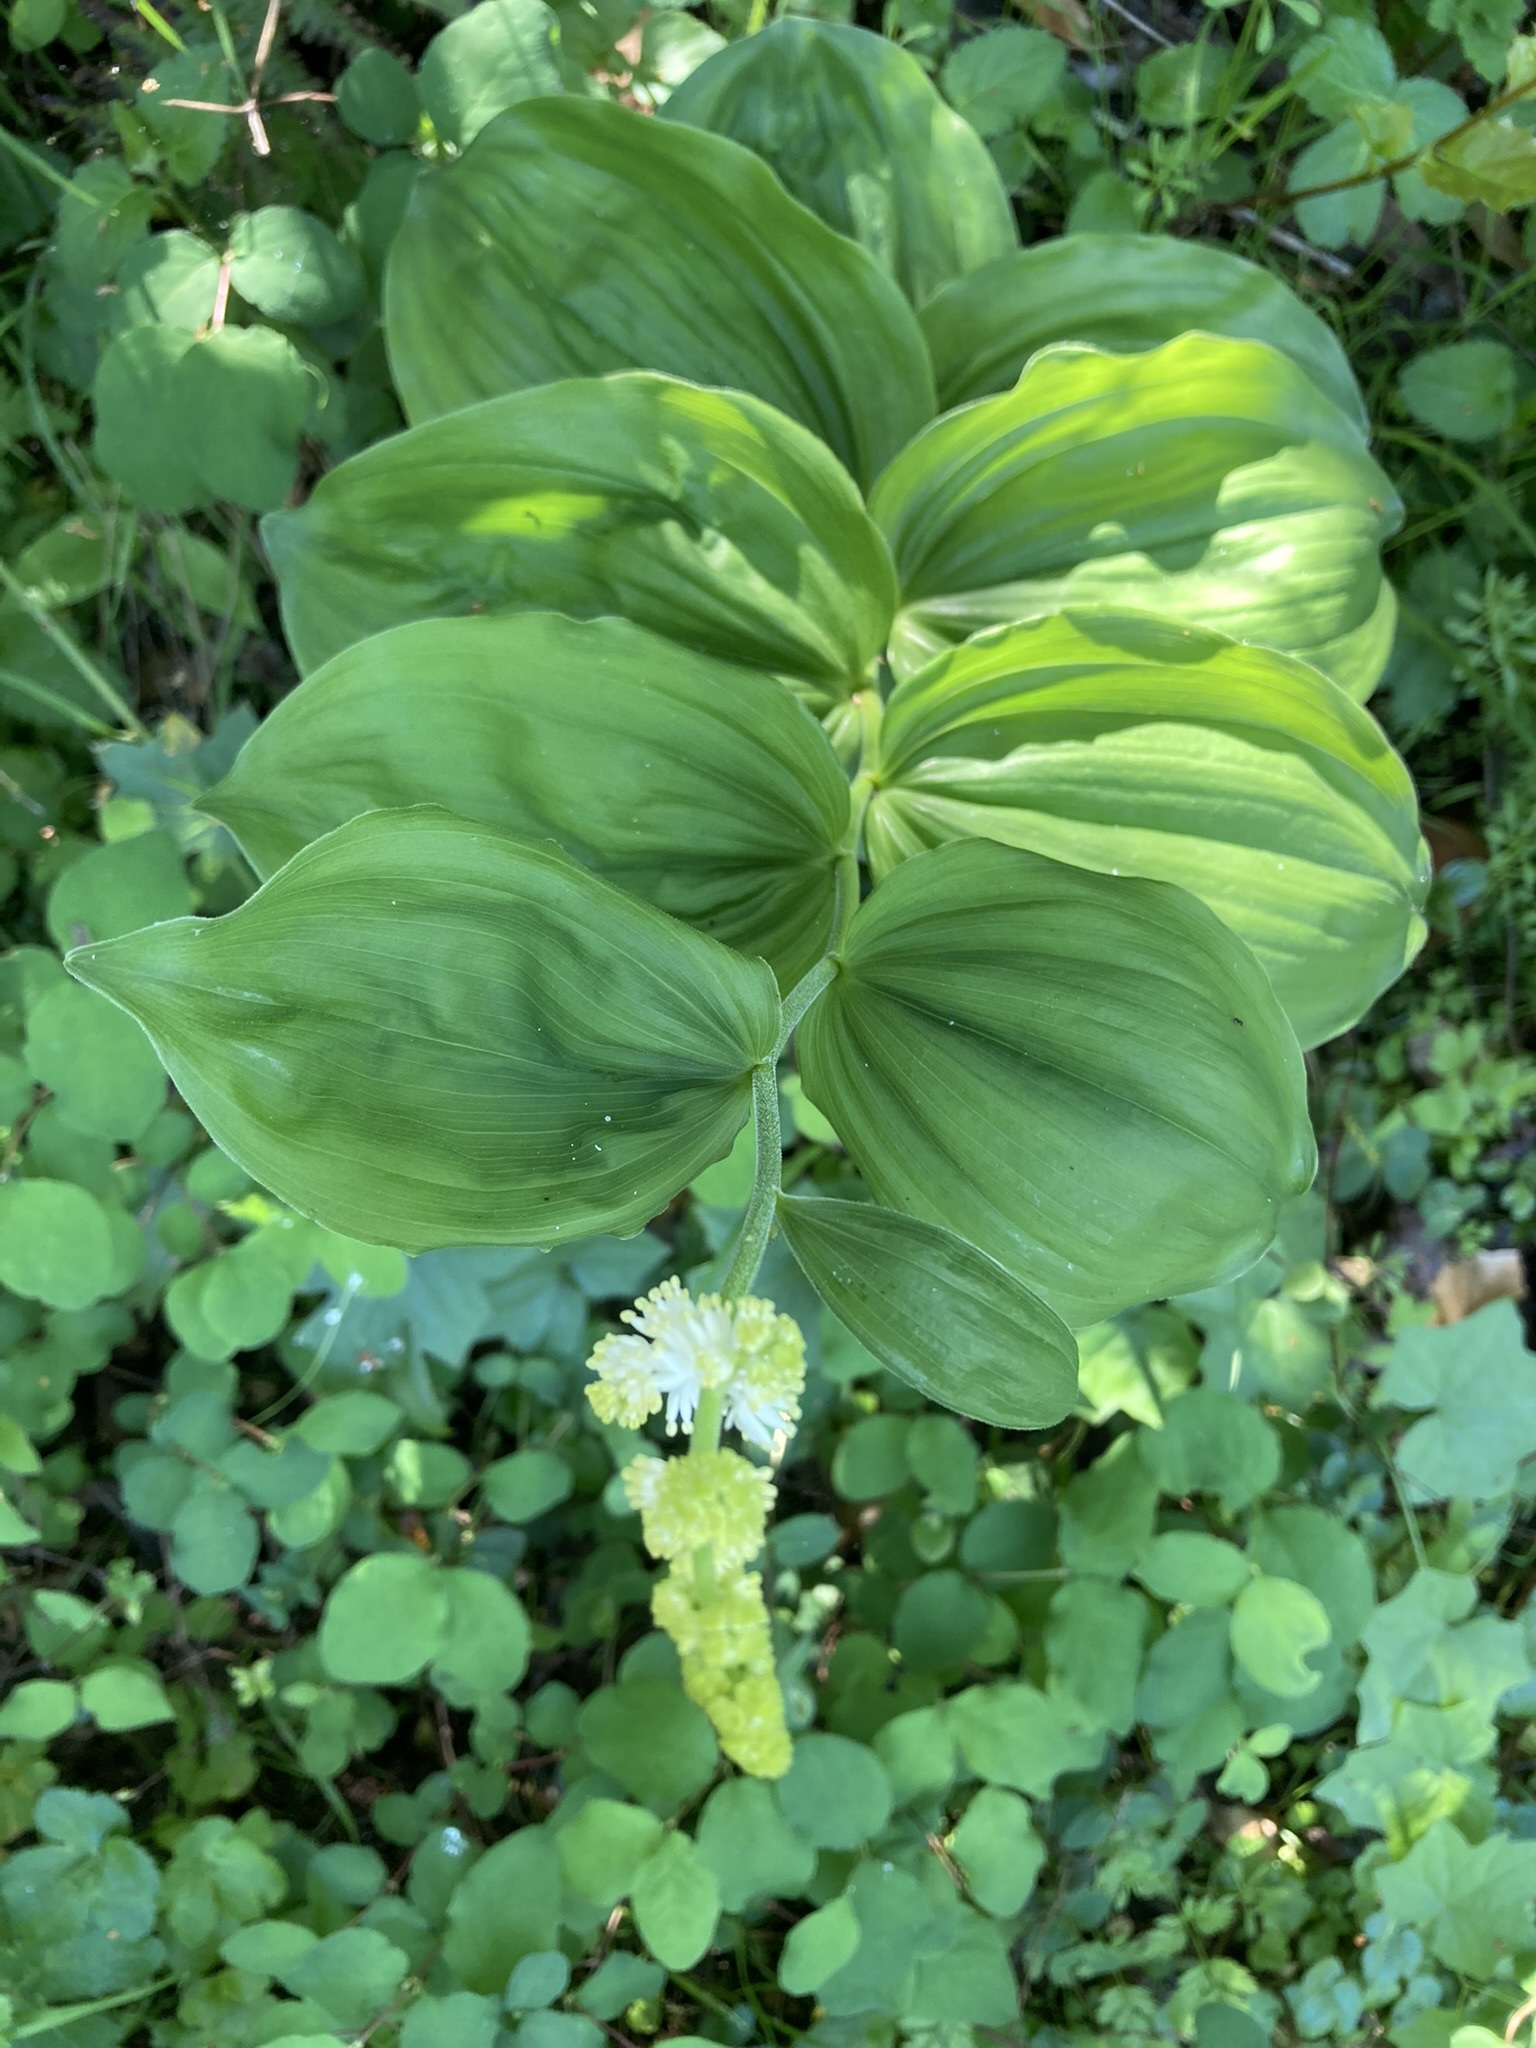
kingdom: Plantae
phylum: Tracheophyta
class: Liliopsida
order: Asparagales
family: Asparagaceae
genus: Maianthemum
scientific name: Maianthemum racemosum
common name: False spikenard
